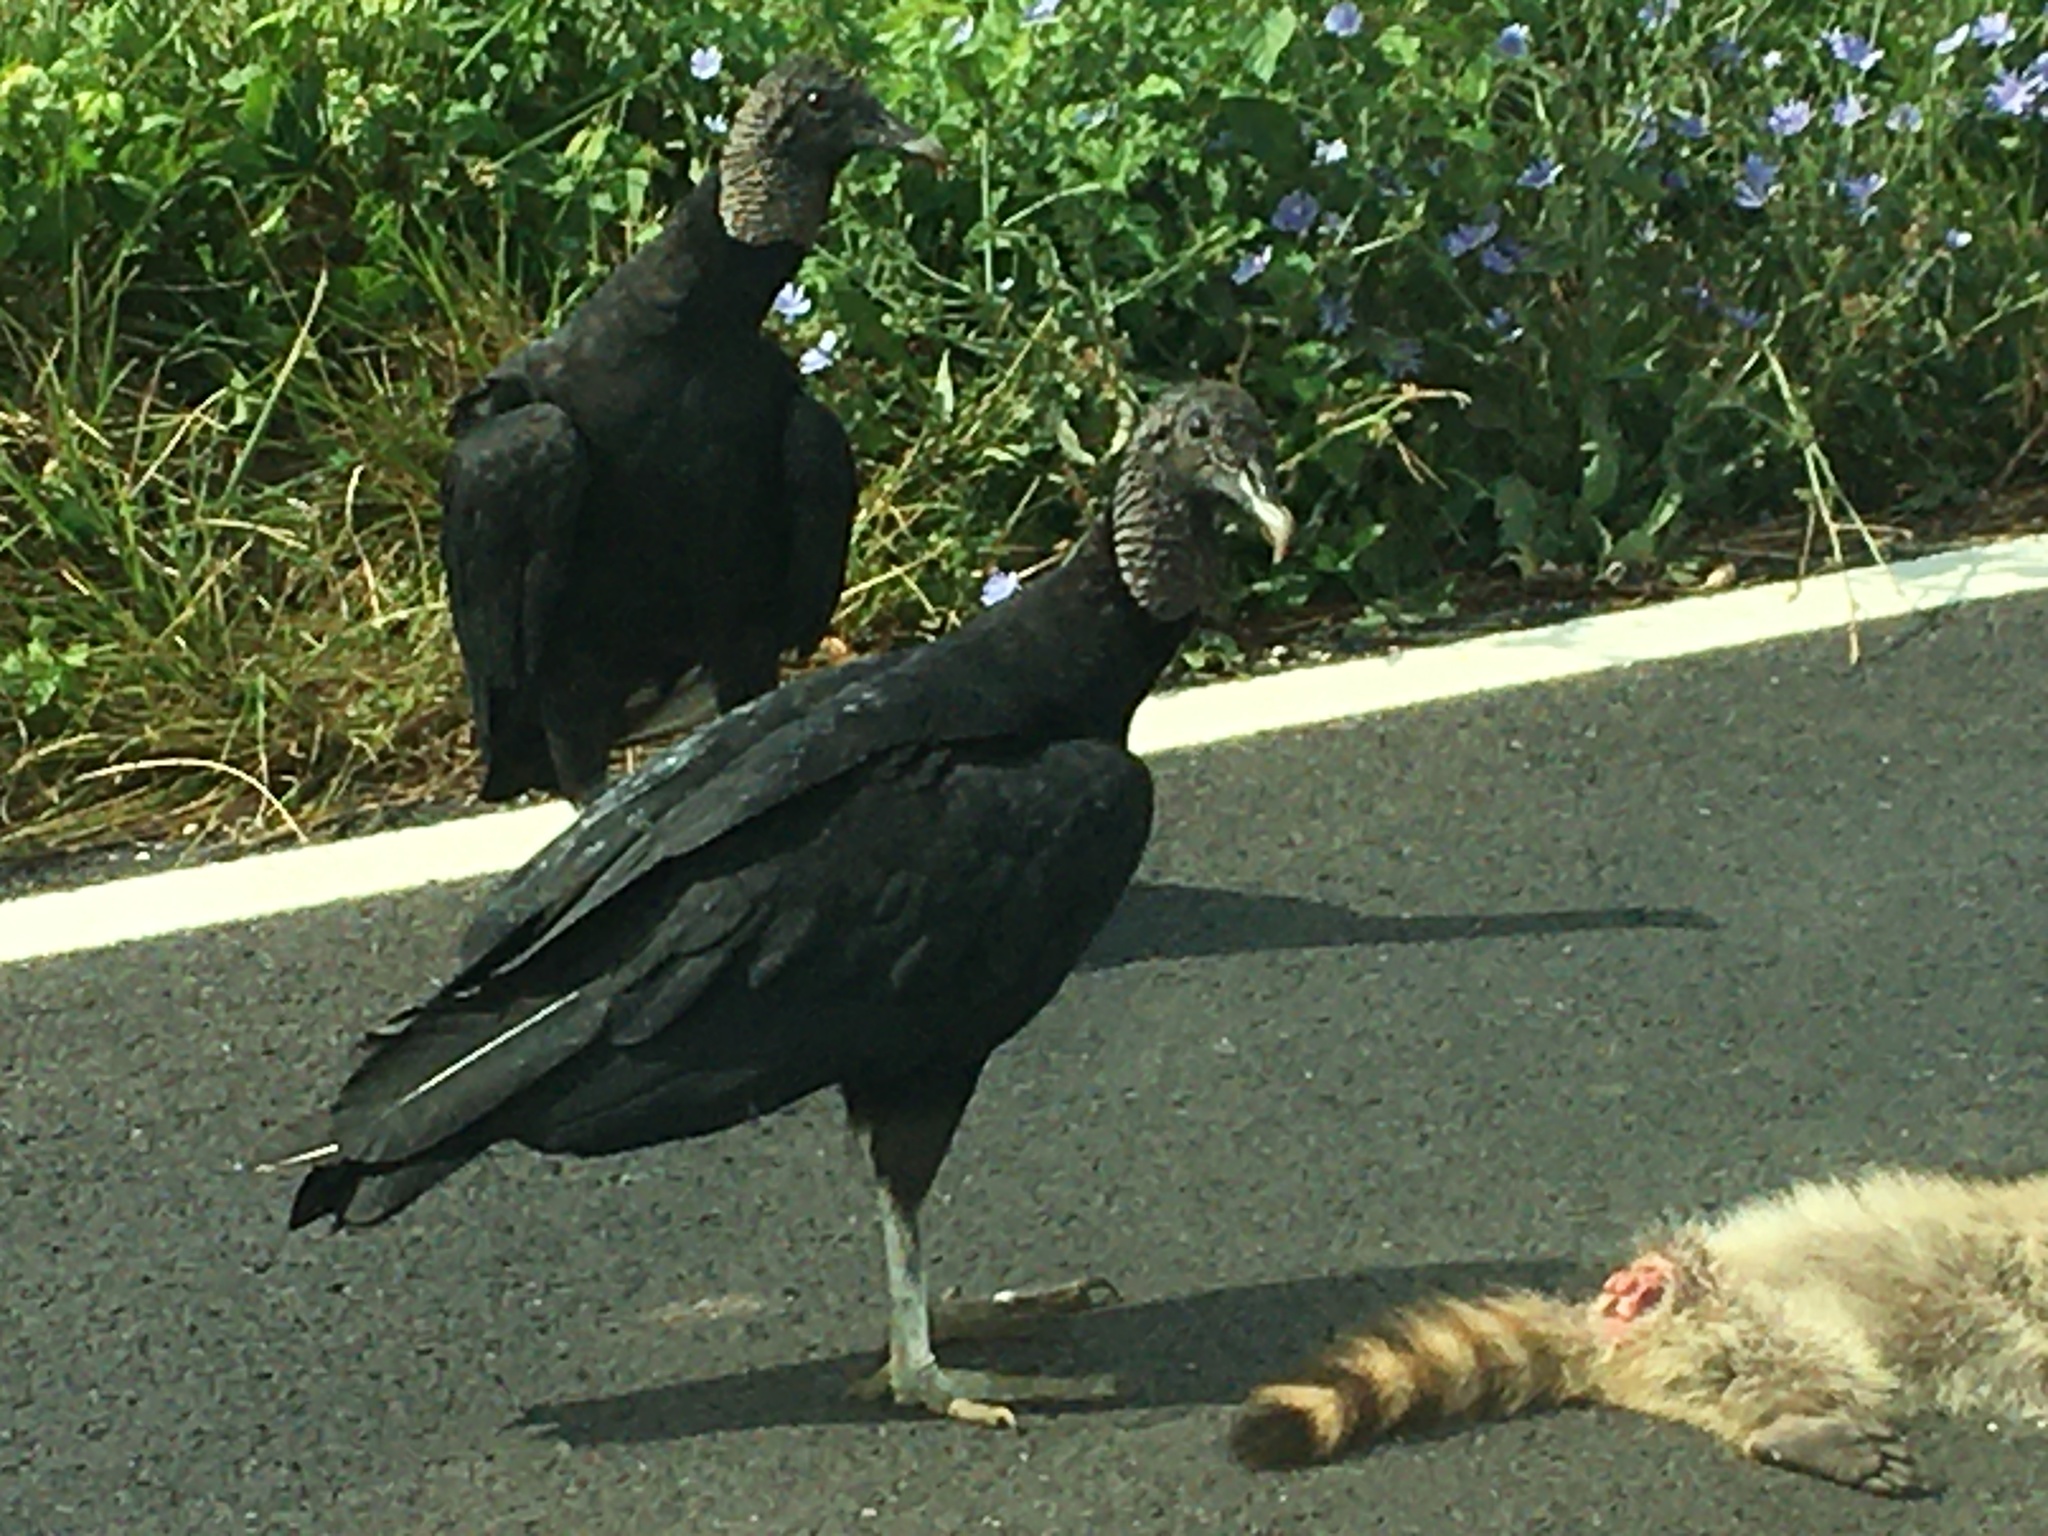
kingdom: Animalia
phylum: Chordata
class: Aves
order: Accipitriformes
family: Cathartidae
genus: Coragyps
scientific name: Coragyps atratus
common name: Black vulture
